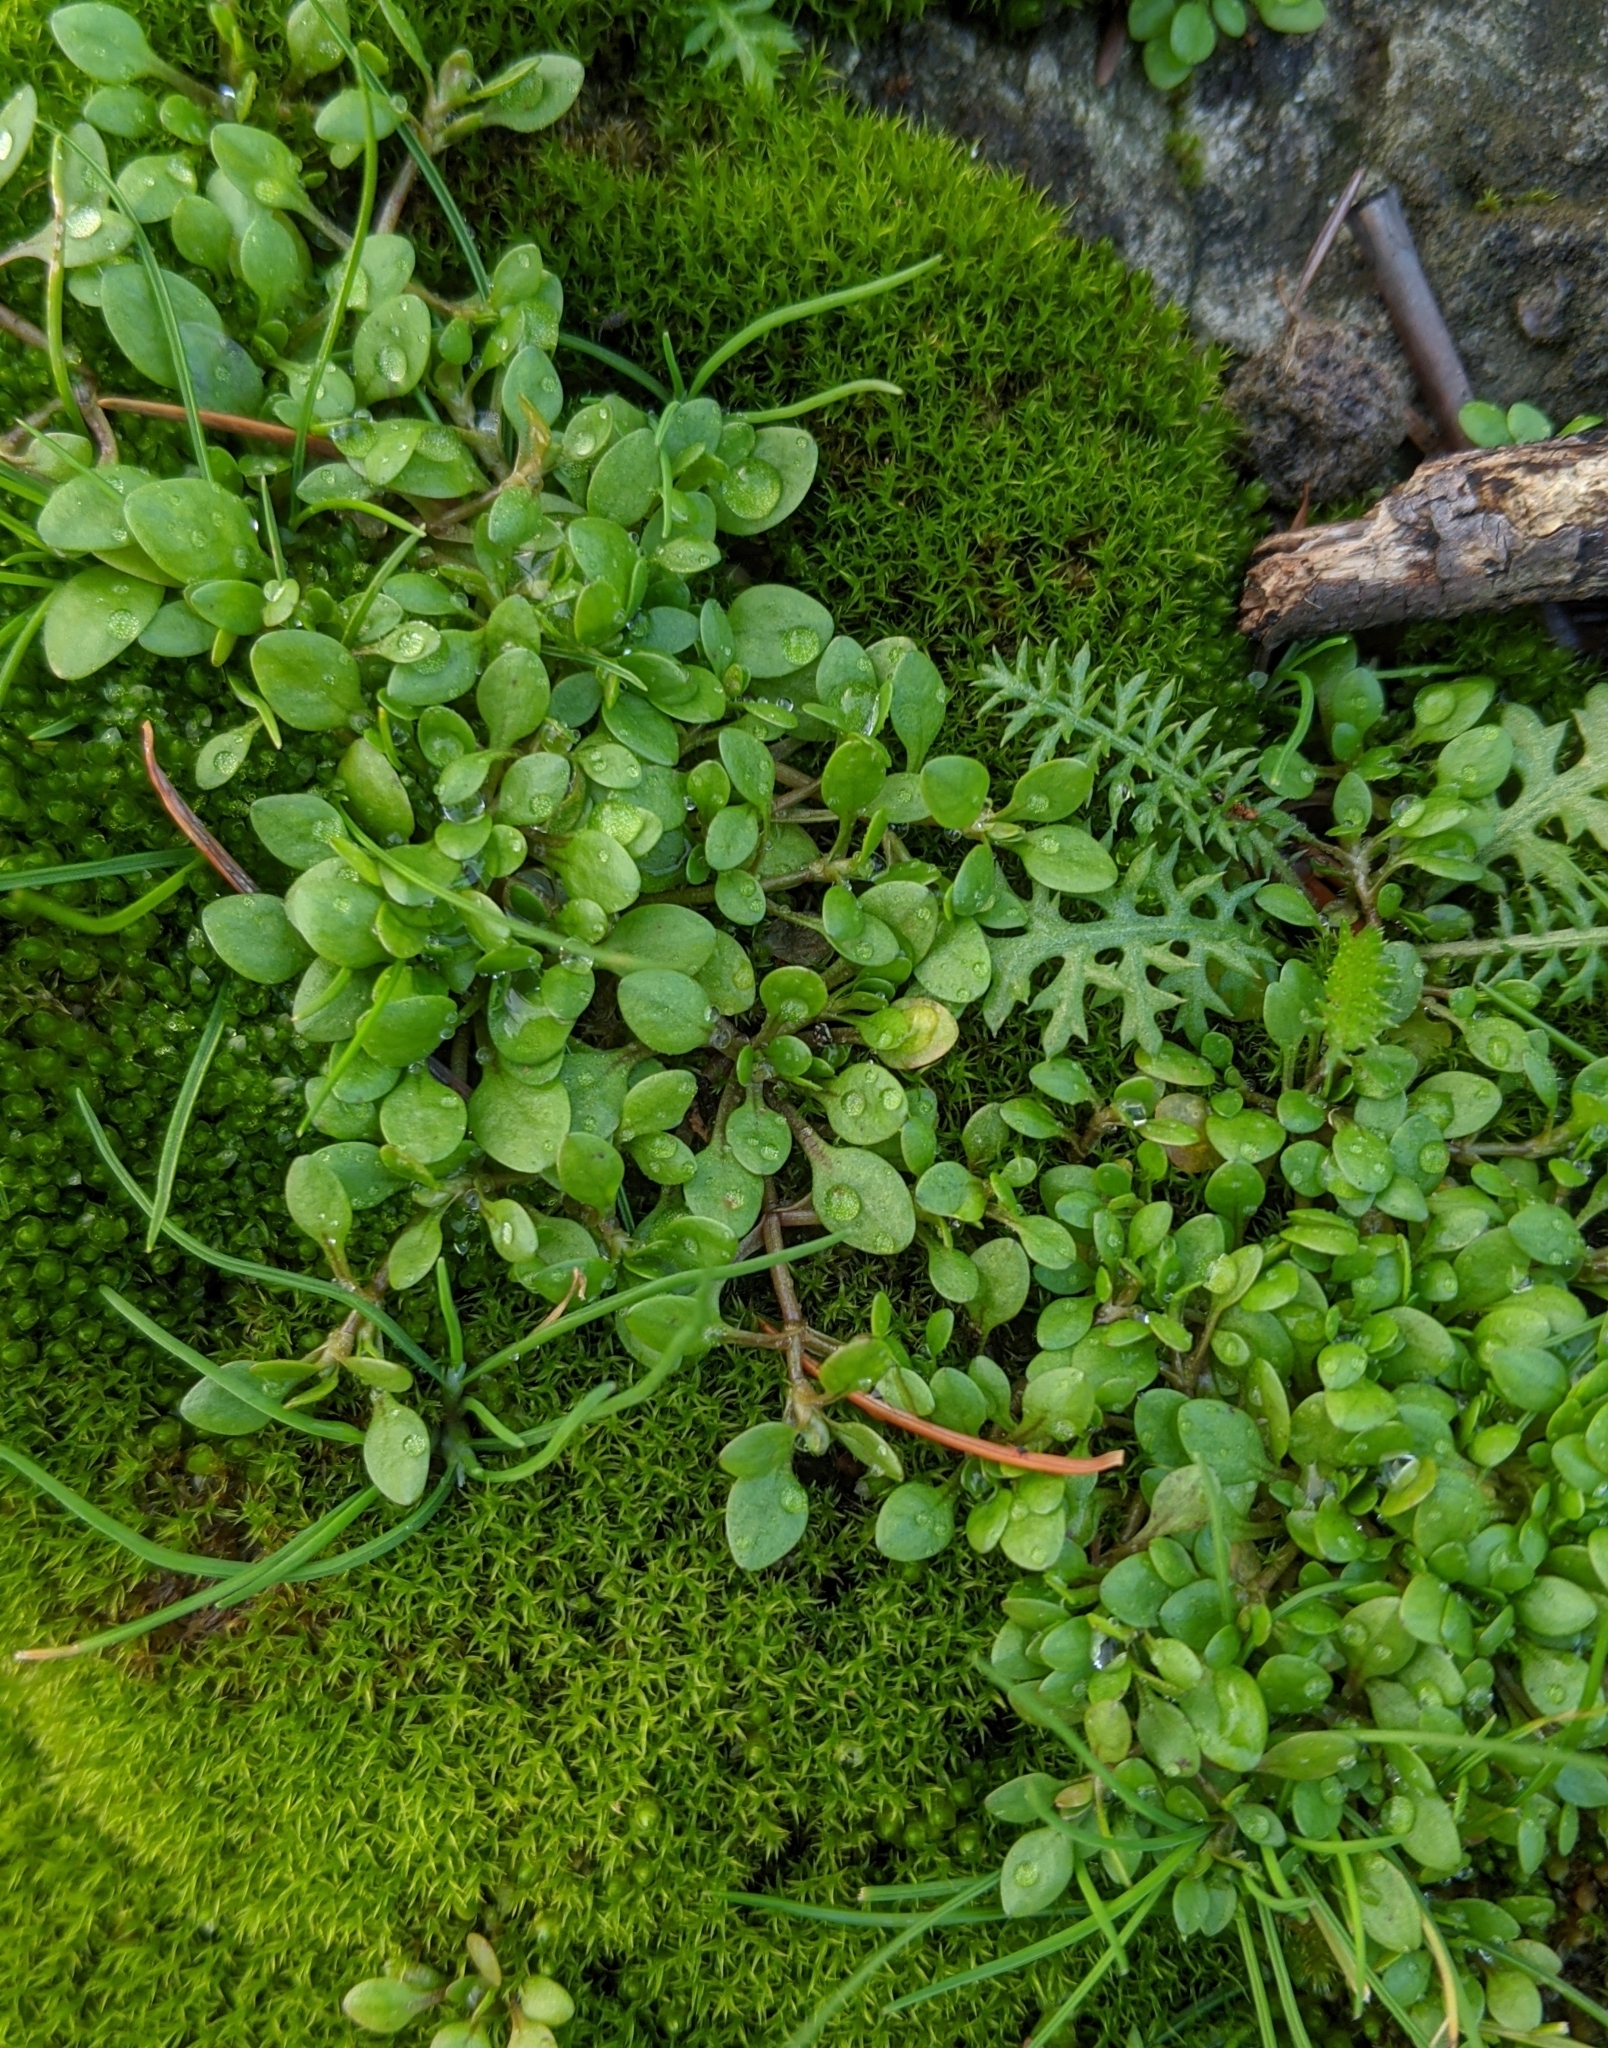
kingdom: Plantae
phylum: Tracheophyta
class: Magnoliopsida
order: Caryophyllales
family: Montiaceae
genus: Montia
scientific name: Montia fontana
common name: Blinks
